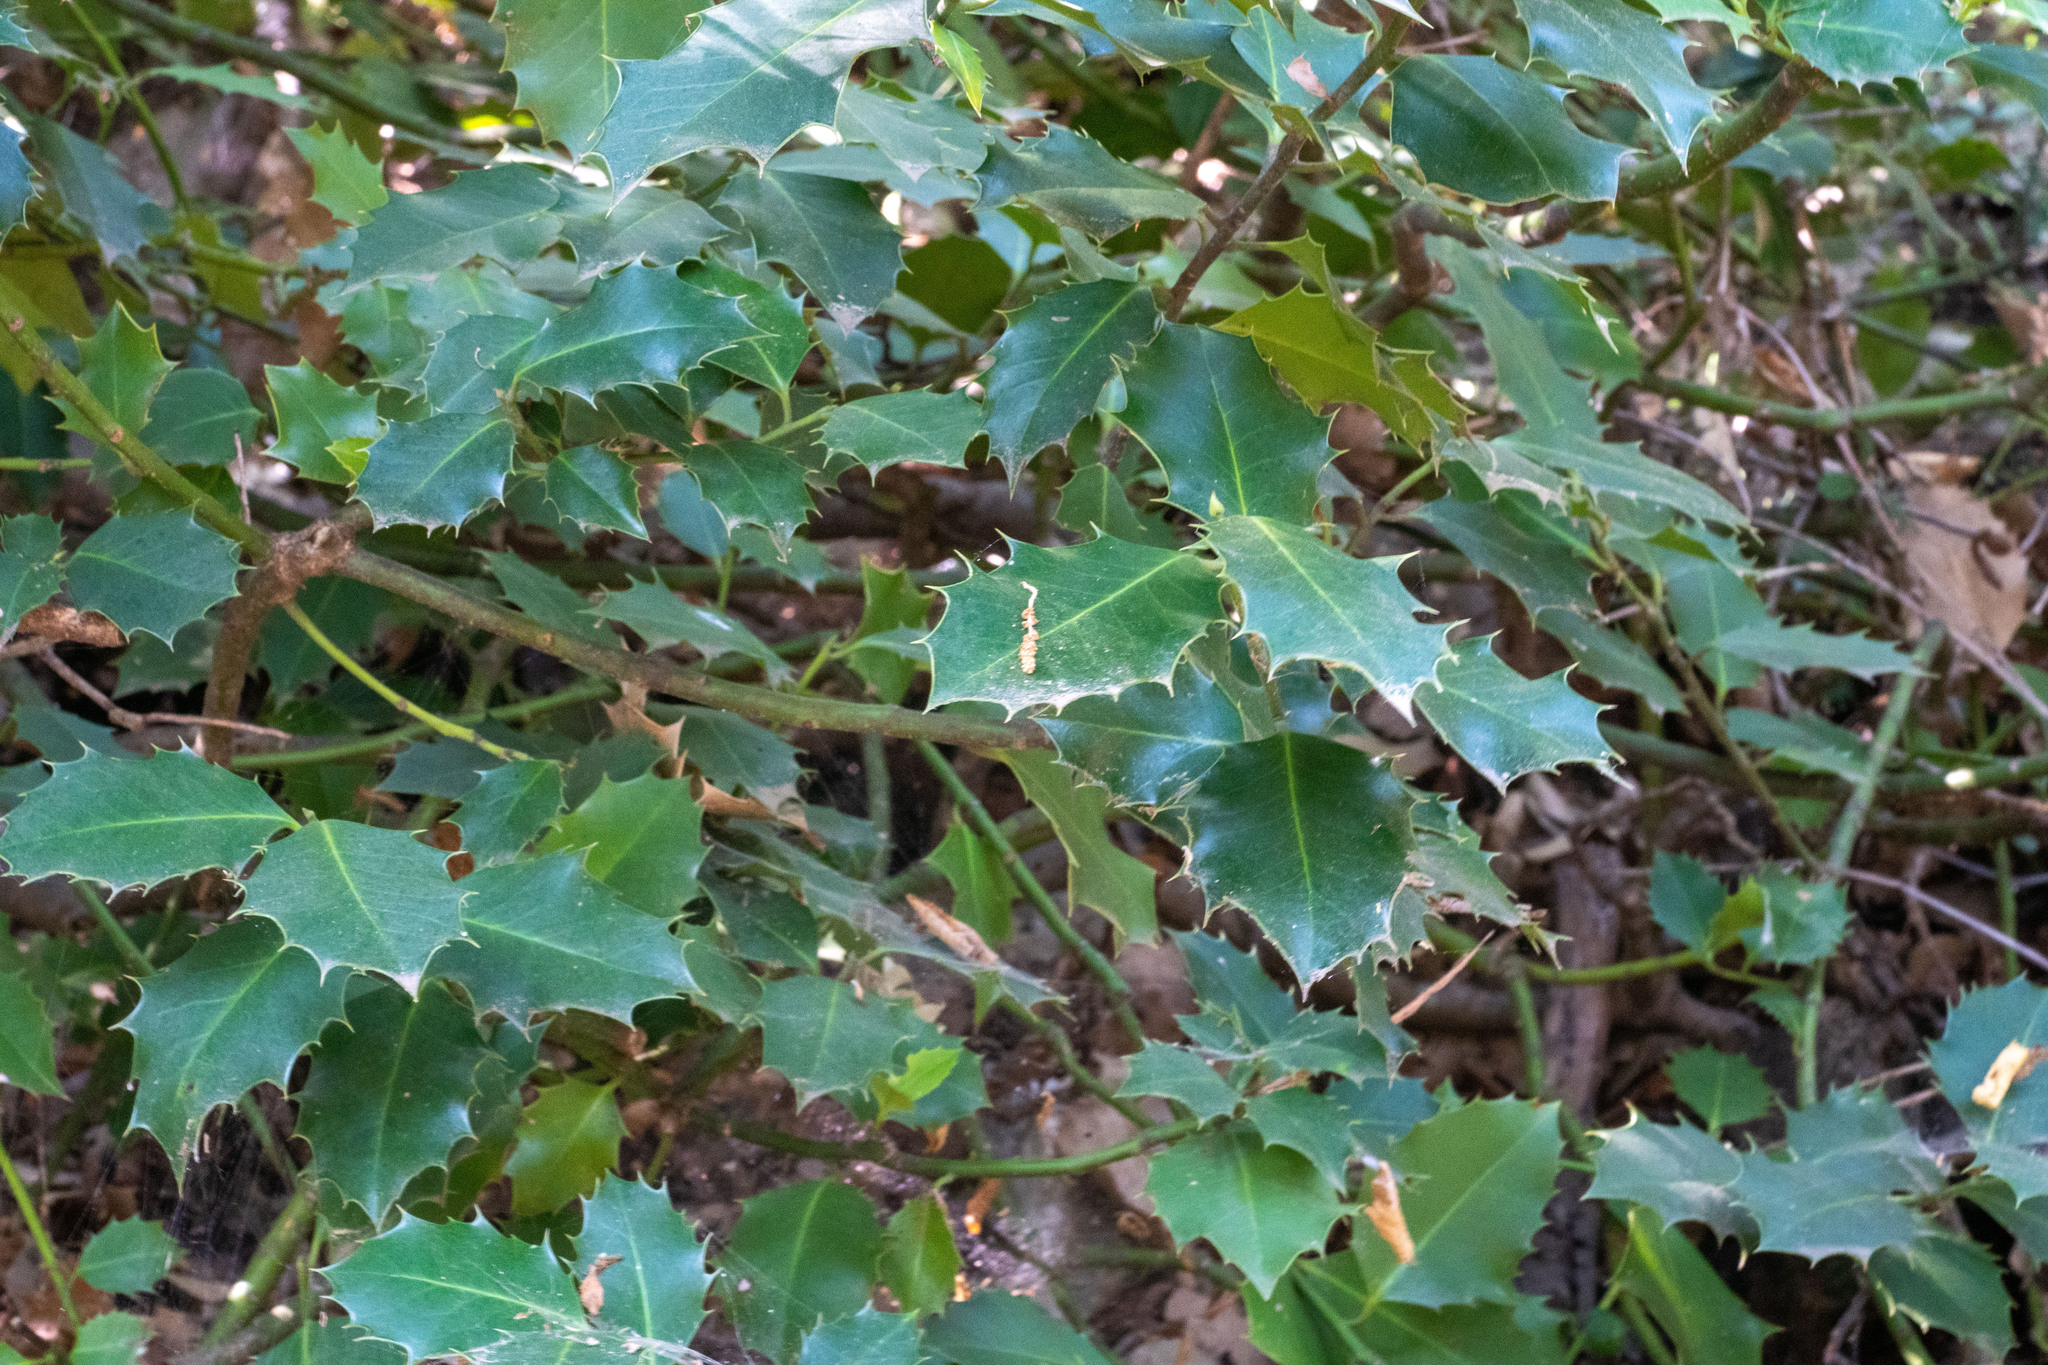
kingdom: Plantae
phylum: Tracheophyta
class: Magnoliopsida
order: Aquifoliales
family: Aquifoliaceae
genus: Ilex
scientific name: Ilex aquifolium
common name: English holly
